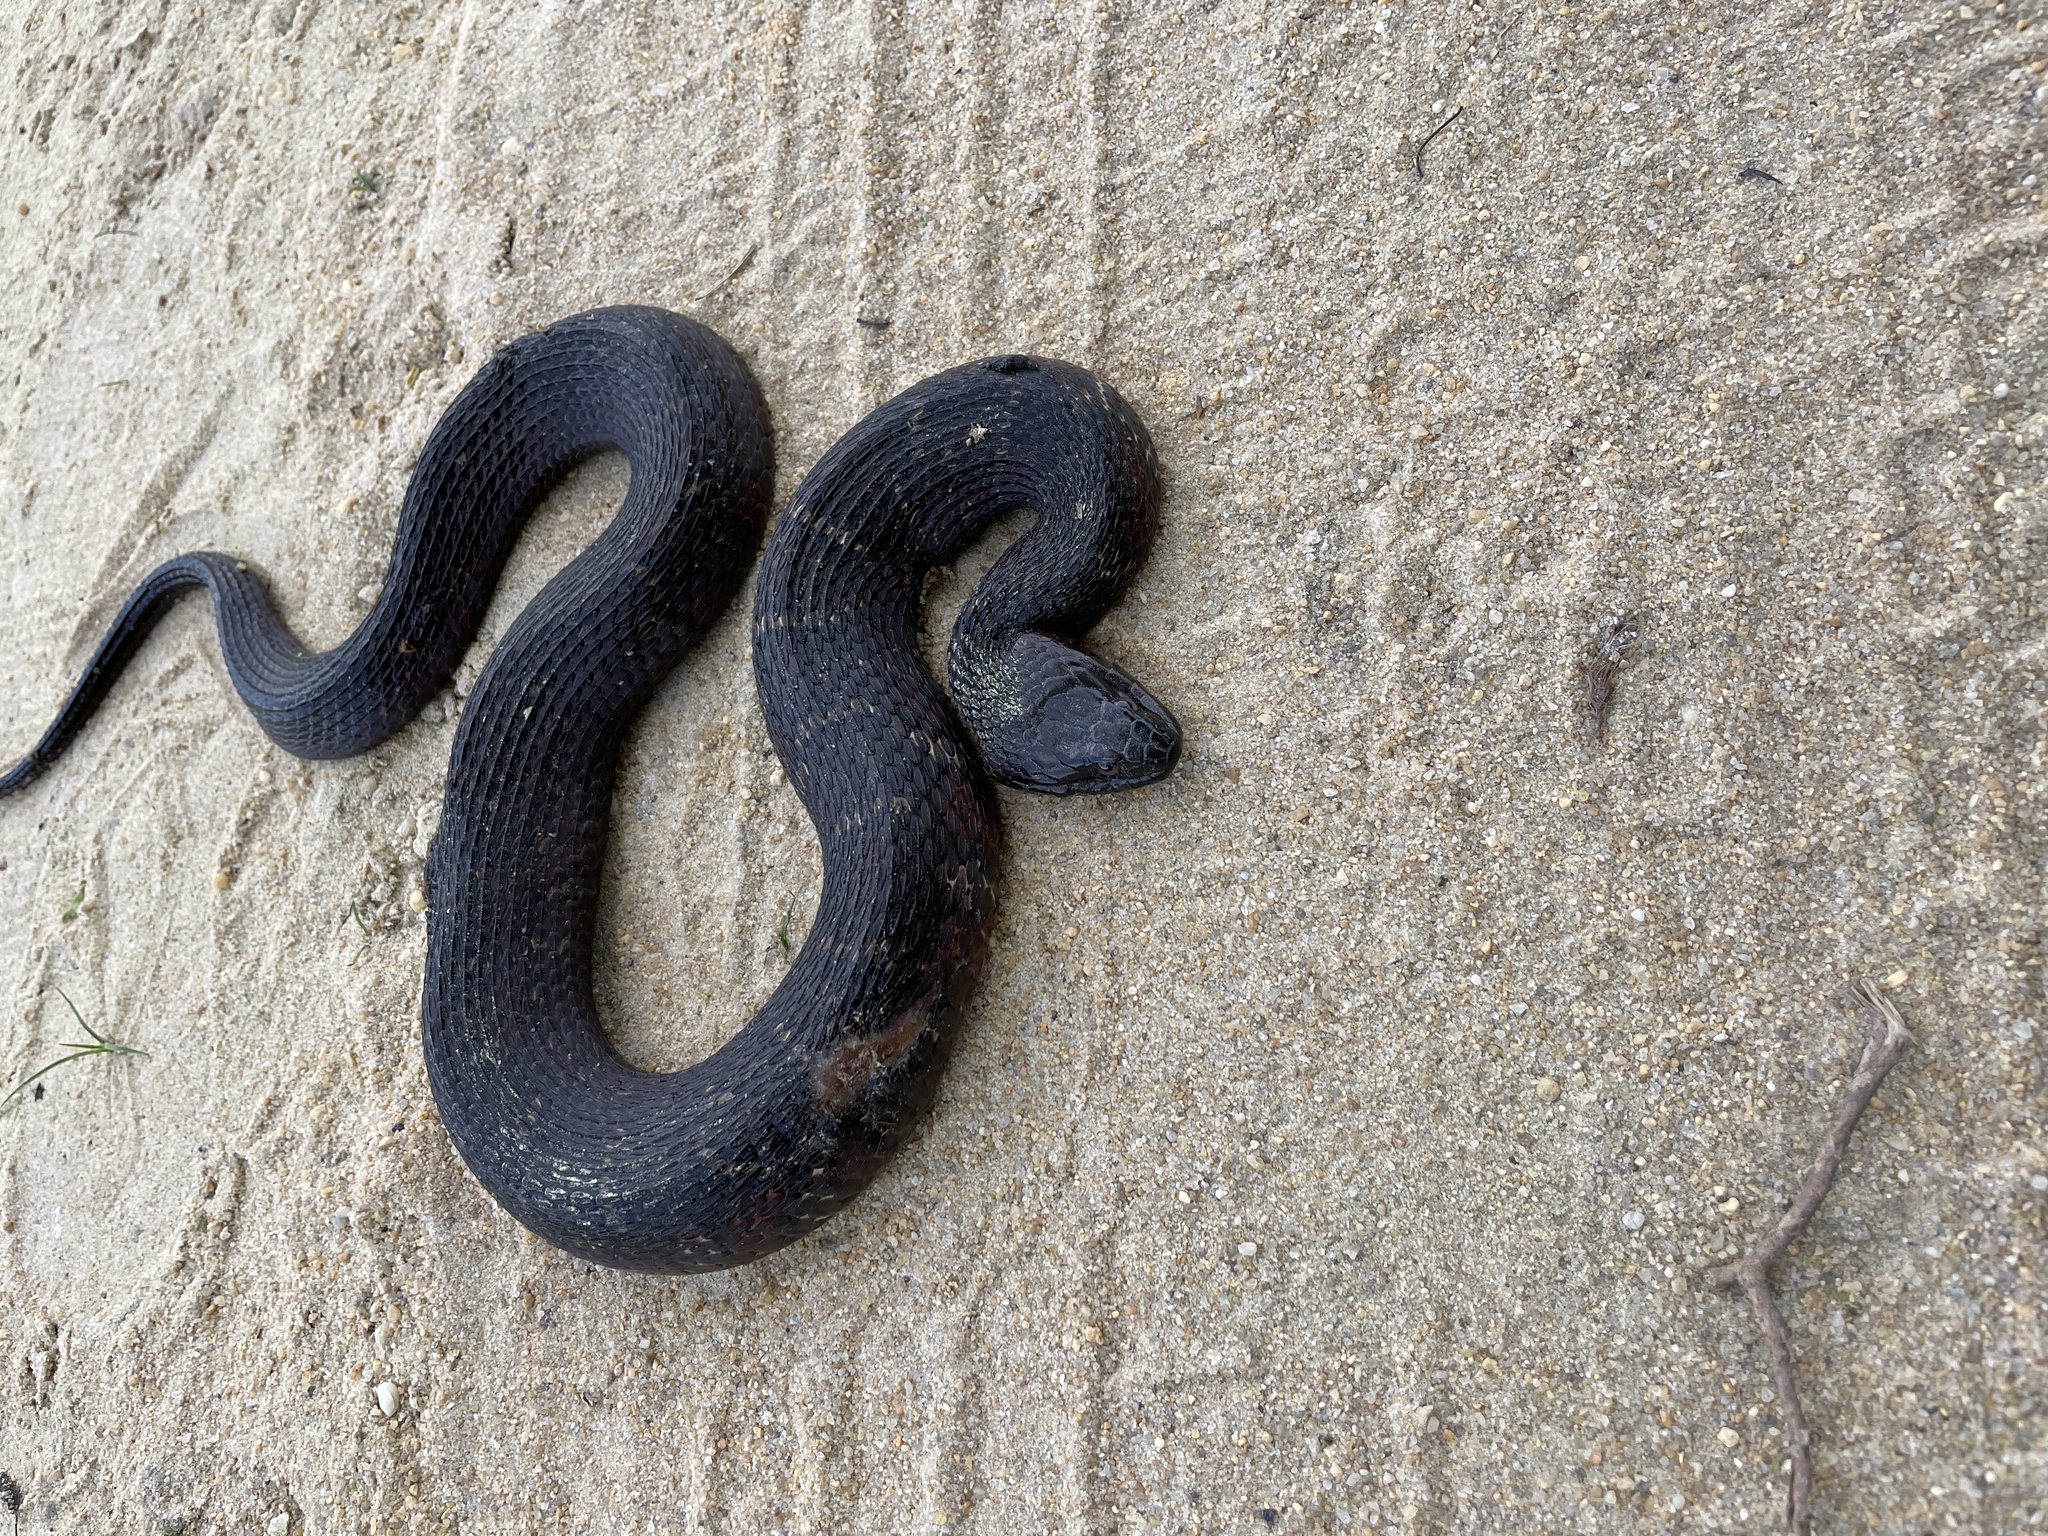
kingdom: Animalia
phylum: Chordata
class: Squamata
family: Colubridae
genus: Nerodia
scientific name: Nerodia sipedon
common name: Northern water snake
